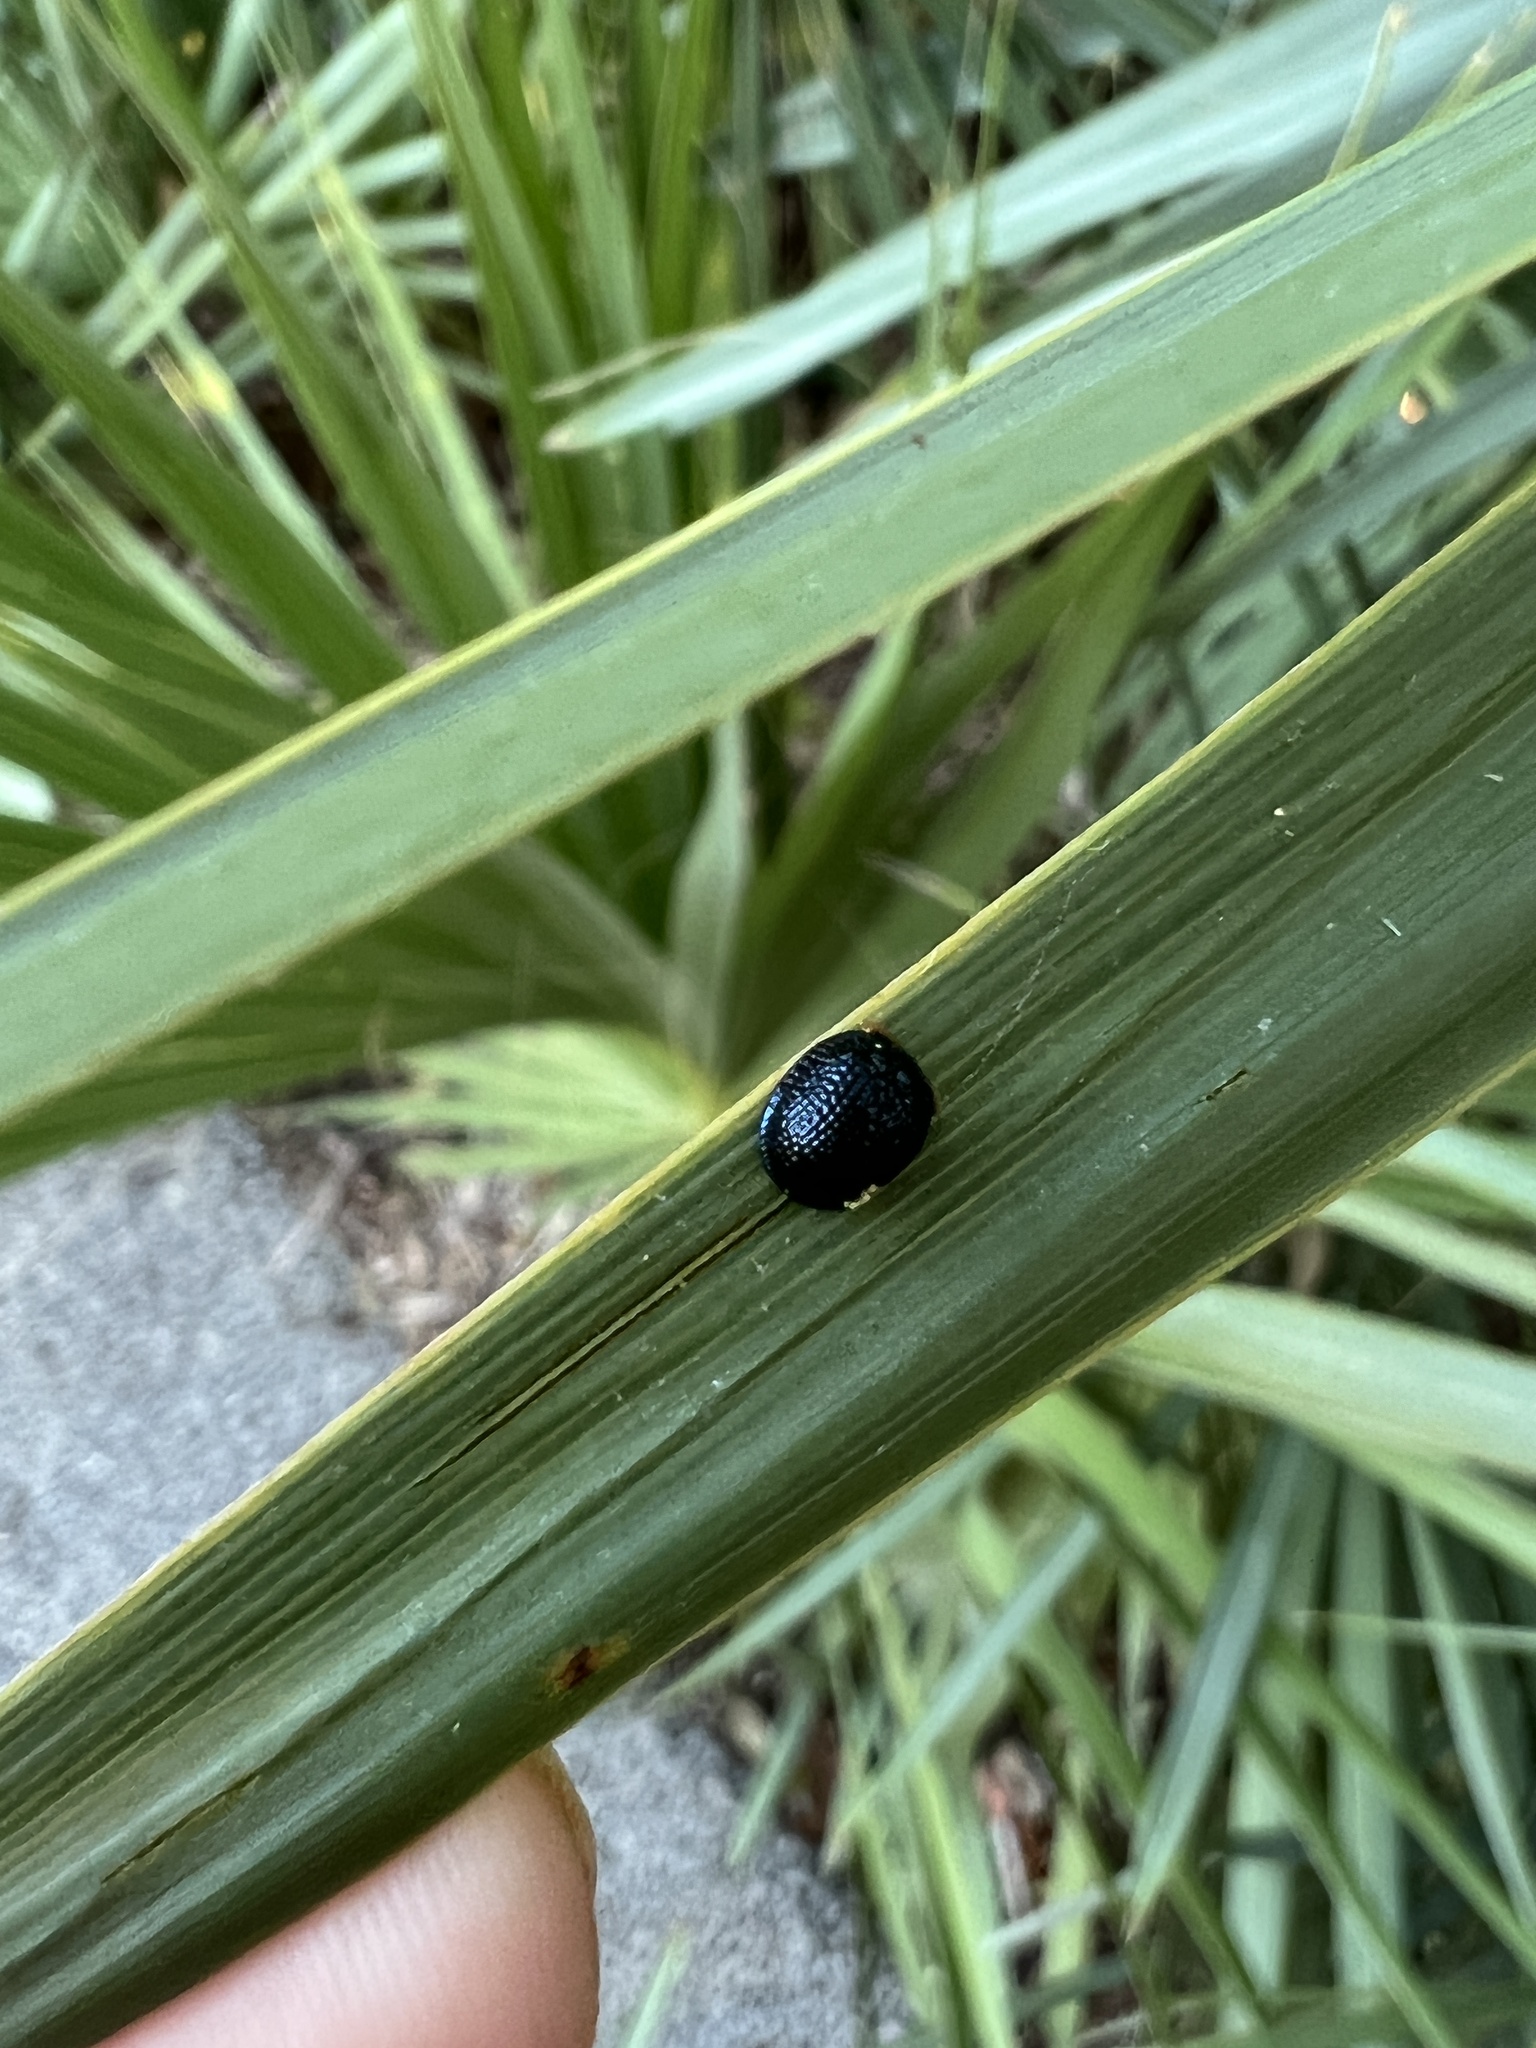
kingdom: Animalia
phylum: Arthropoda
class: Insecta
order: Coleoptera
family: Chrysomelidae
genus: Hemisphaerota
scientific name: Hemisphaerota cyanea
